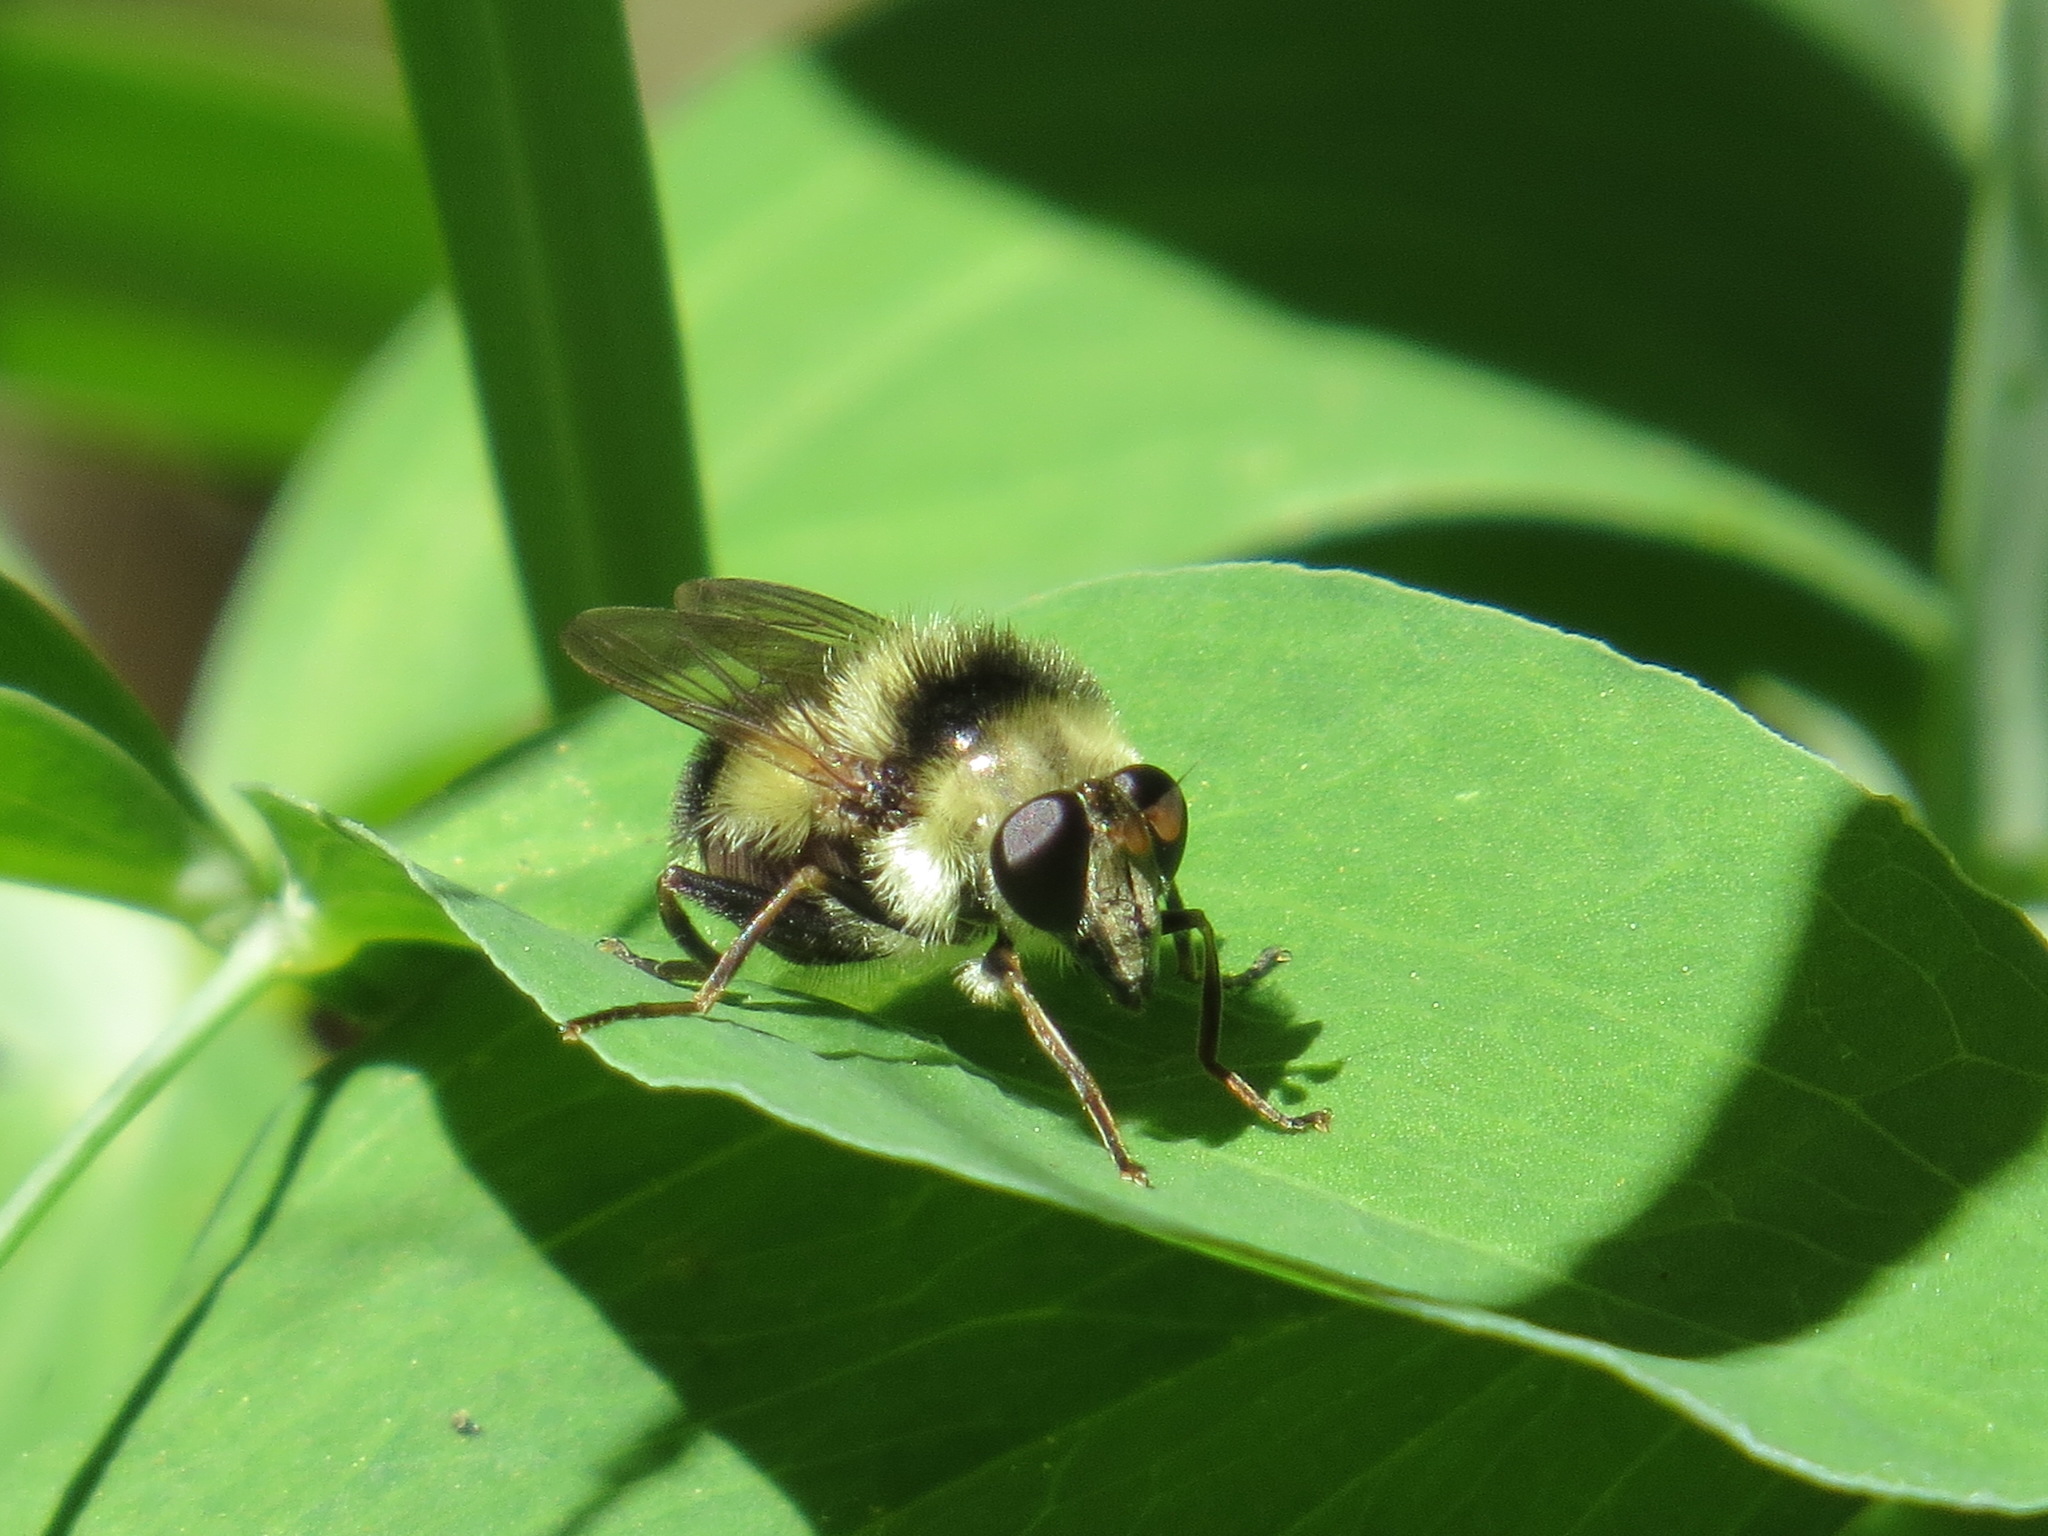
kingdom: Animalia
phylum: Arthropoda
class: Insecta
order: Diptera
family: Syrphidae
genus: Criorhina
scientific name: Criorhina coquilletti
